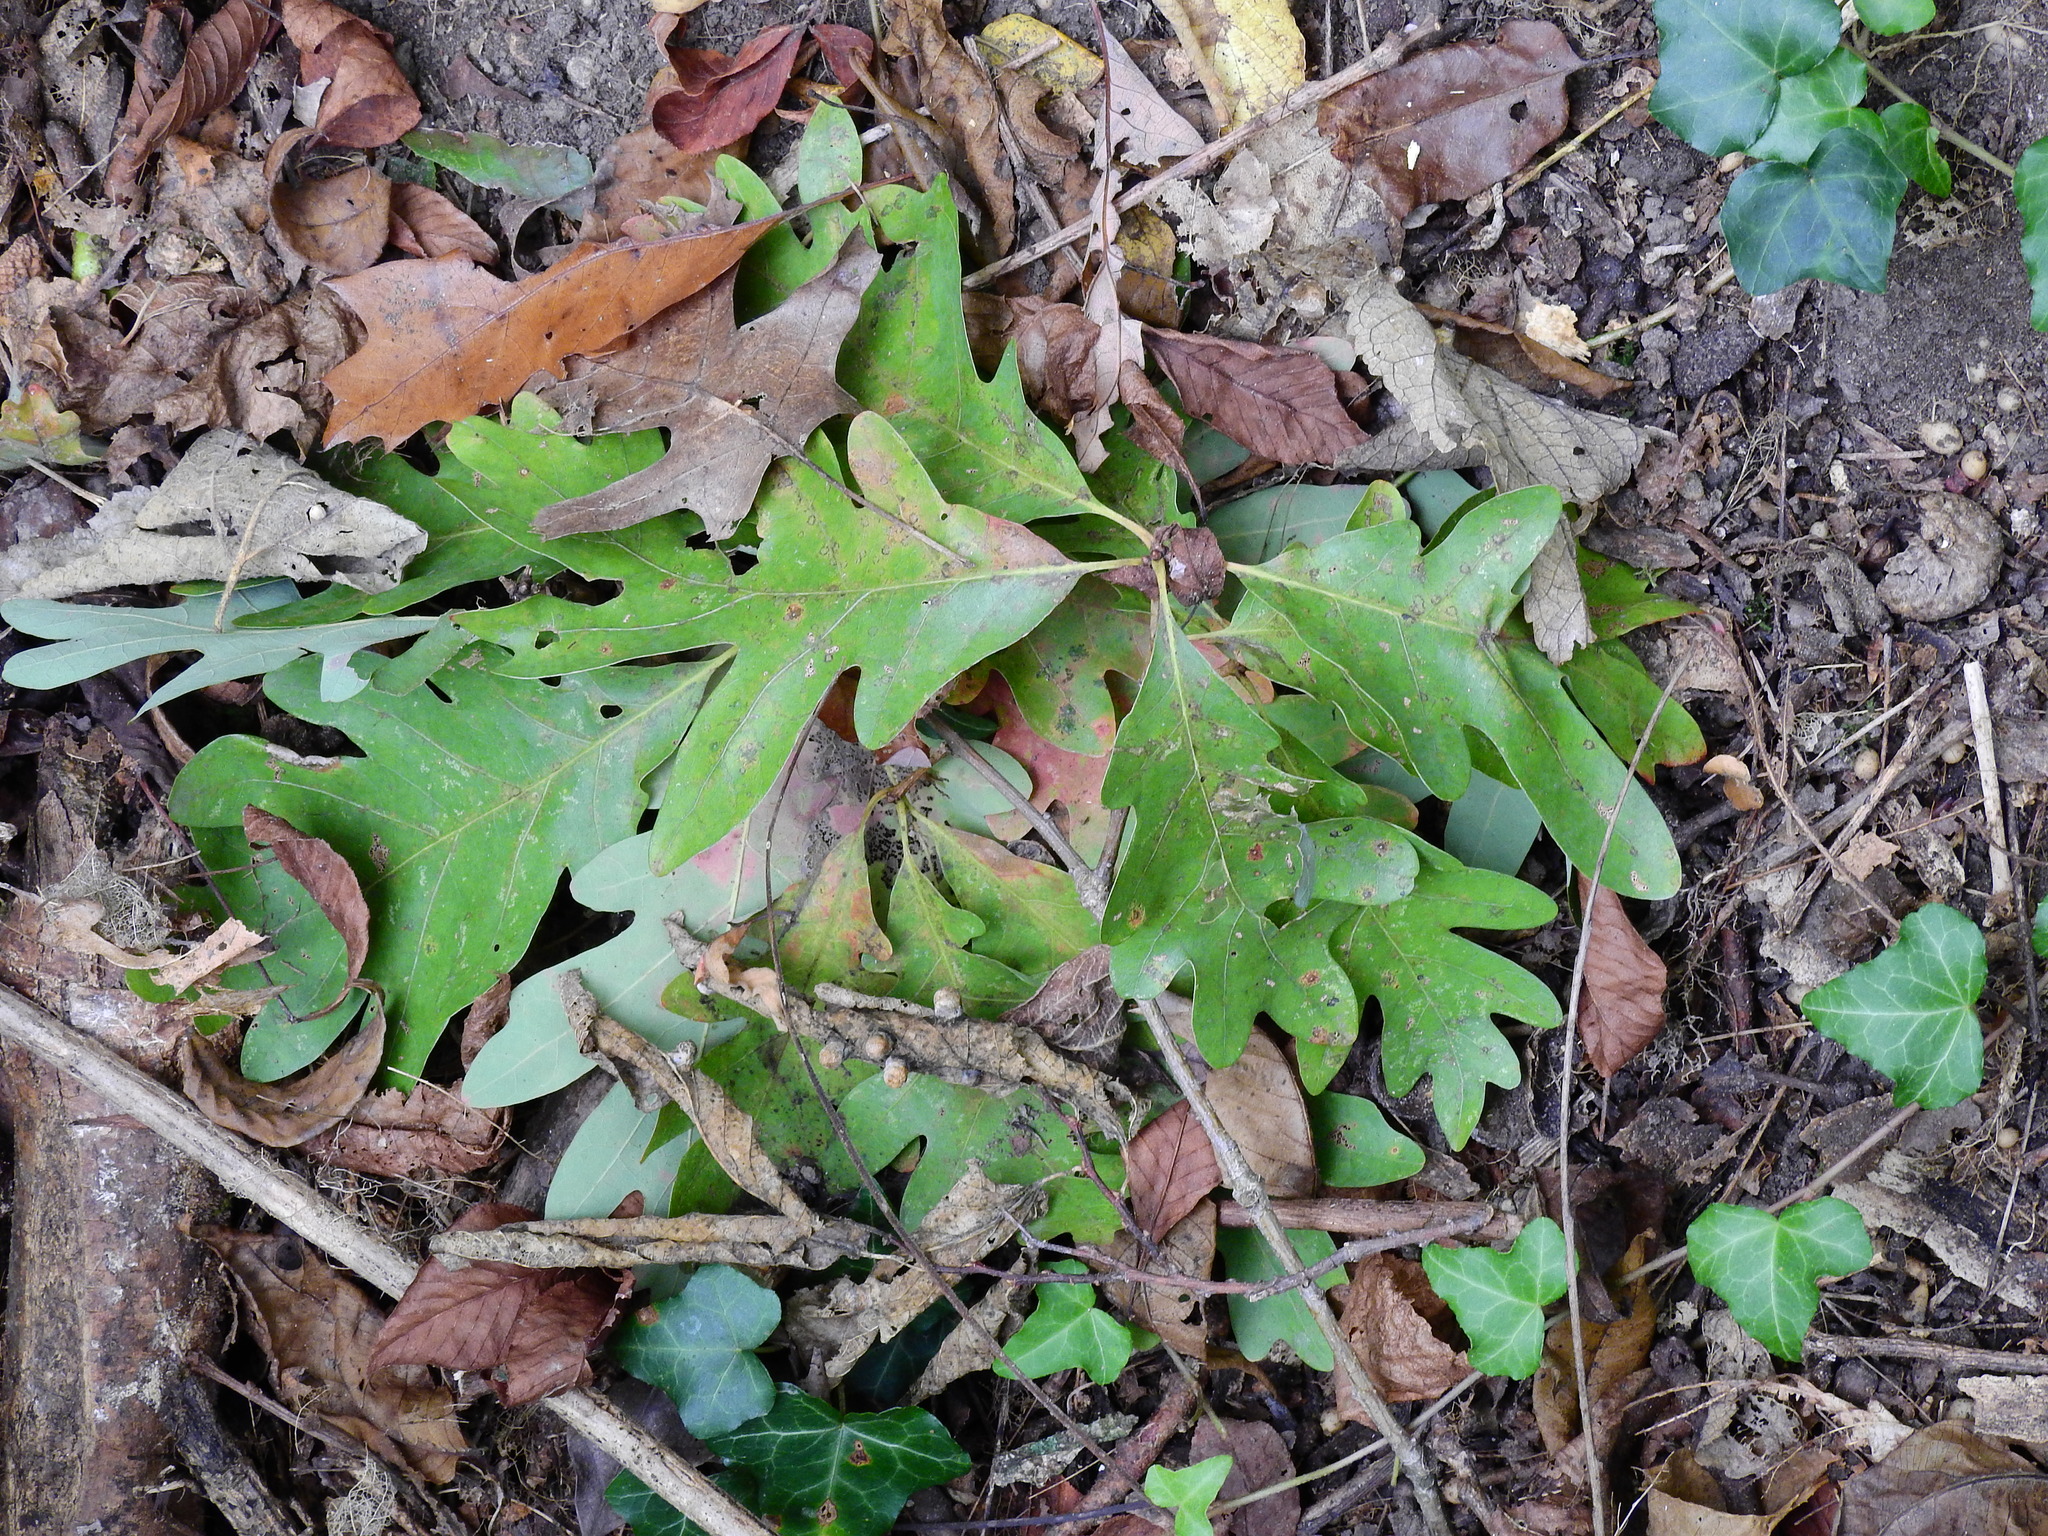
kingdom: Plantae
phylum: Tracheophyta
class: Magnoliopsida
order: Fagales
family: Fagaceae
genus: Quercus
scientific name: Quercus alba
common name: White oak
